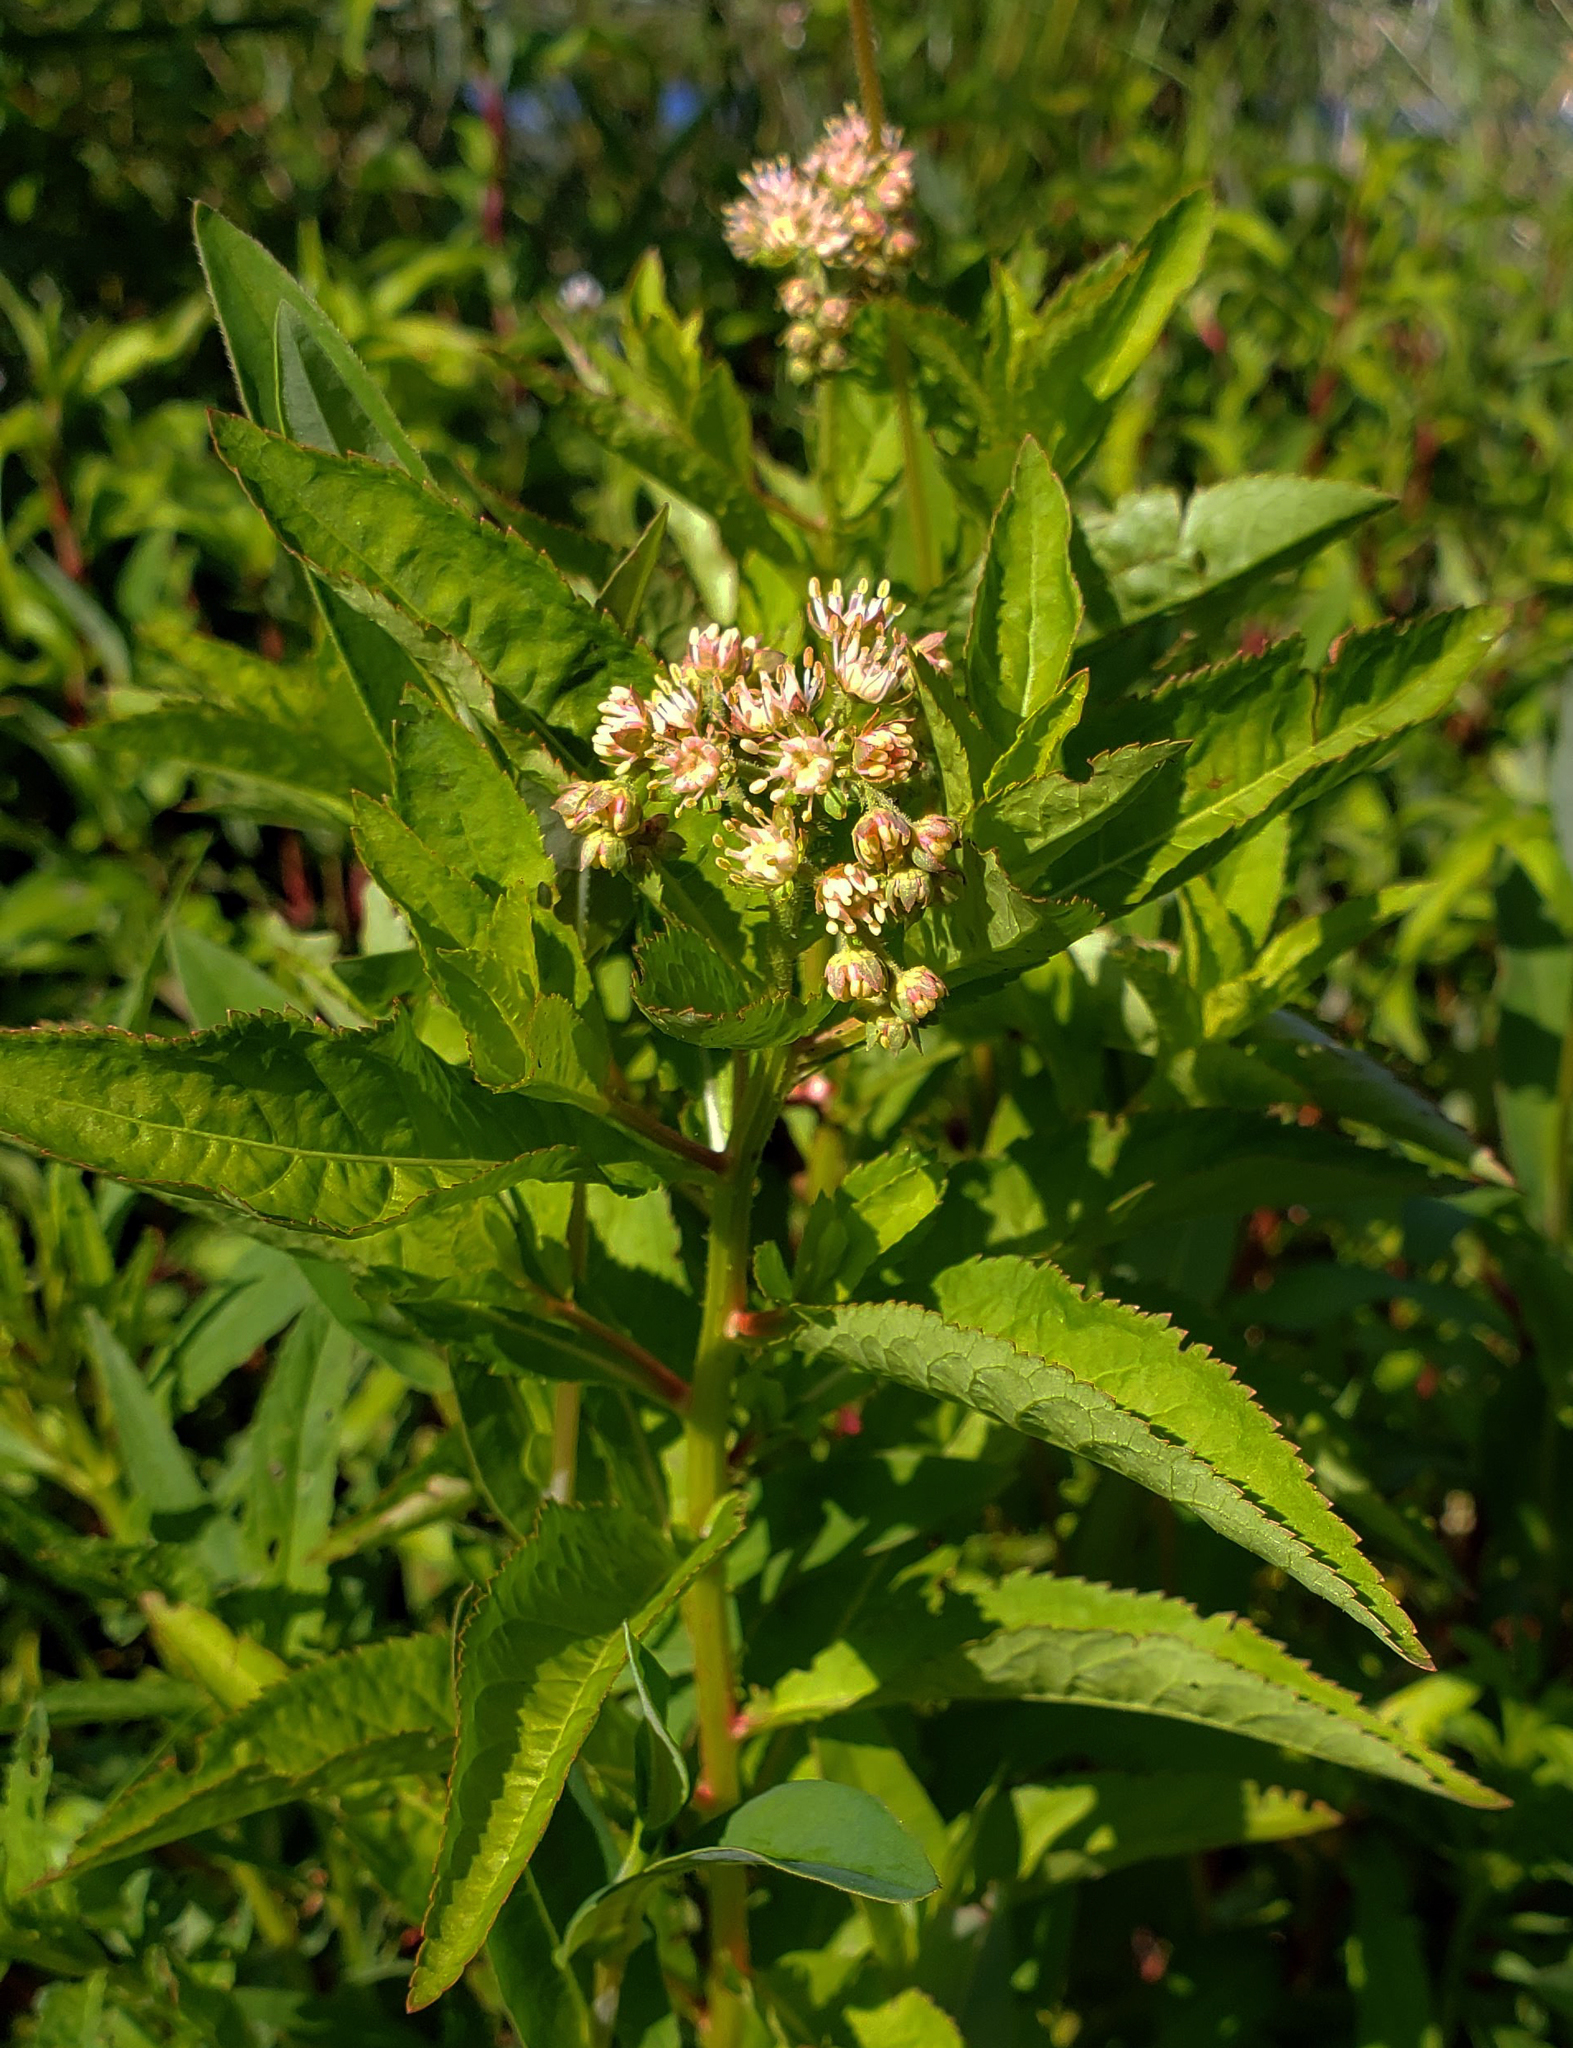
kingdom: Plantae
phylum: Tracheophyta
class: Magnoliopsida
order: Saxifragales
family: Penthoraceae
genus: Penthorum
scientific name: Penthorum sedoides
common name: Ditch stonecrop
